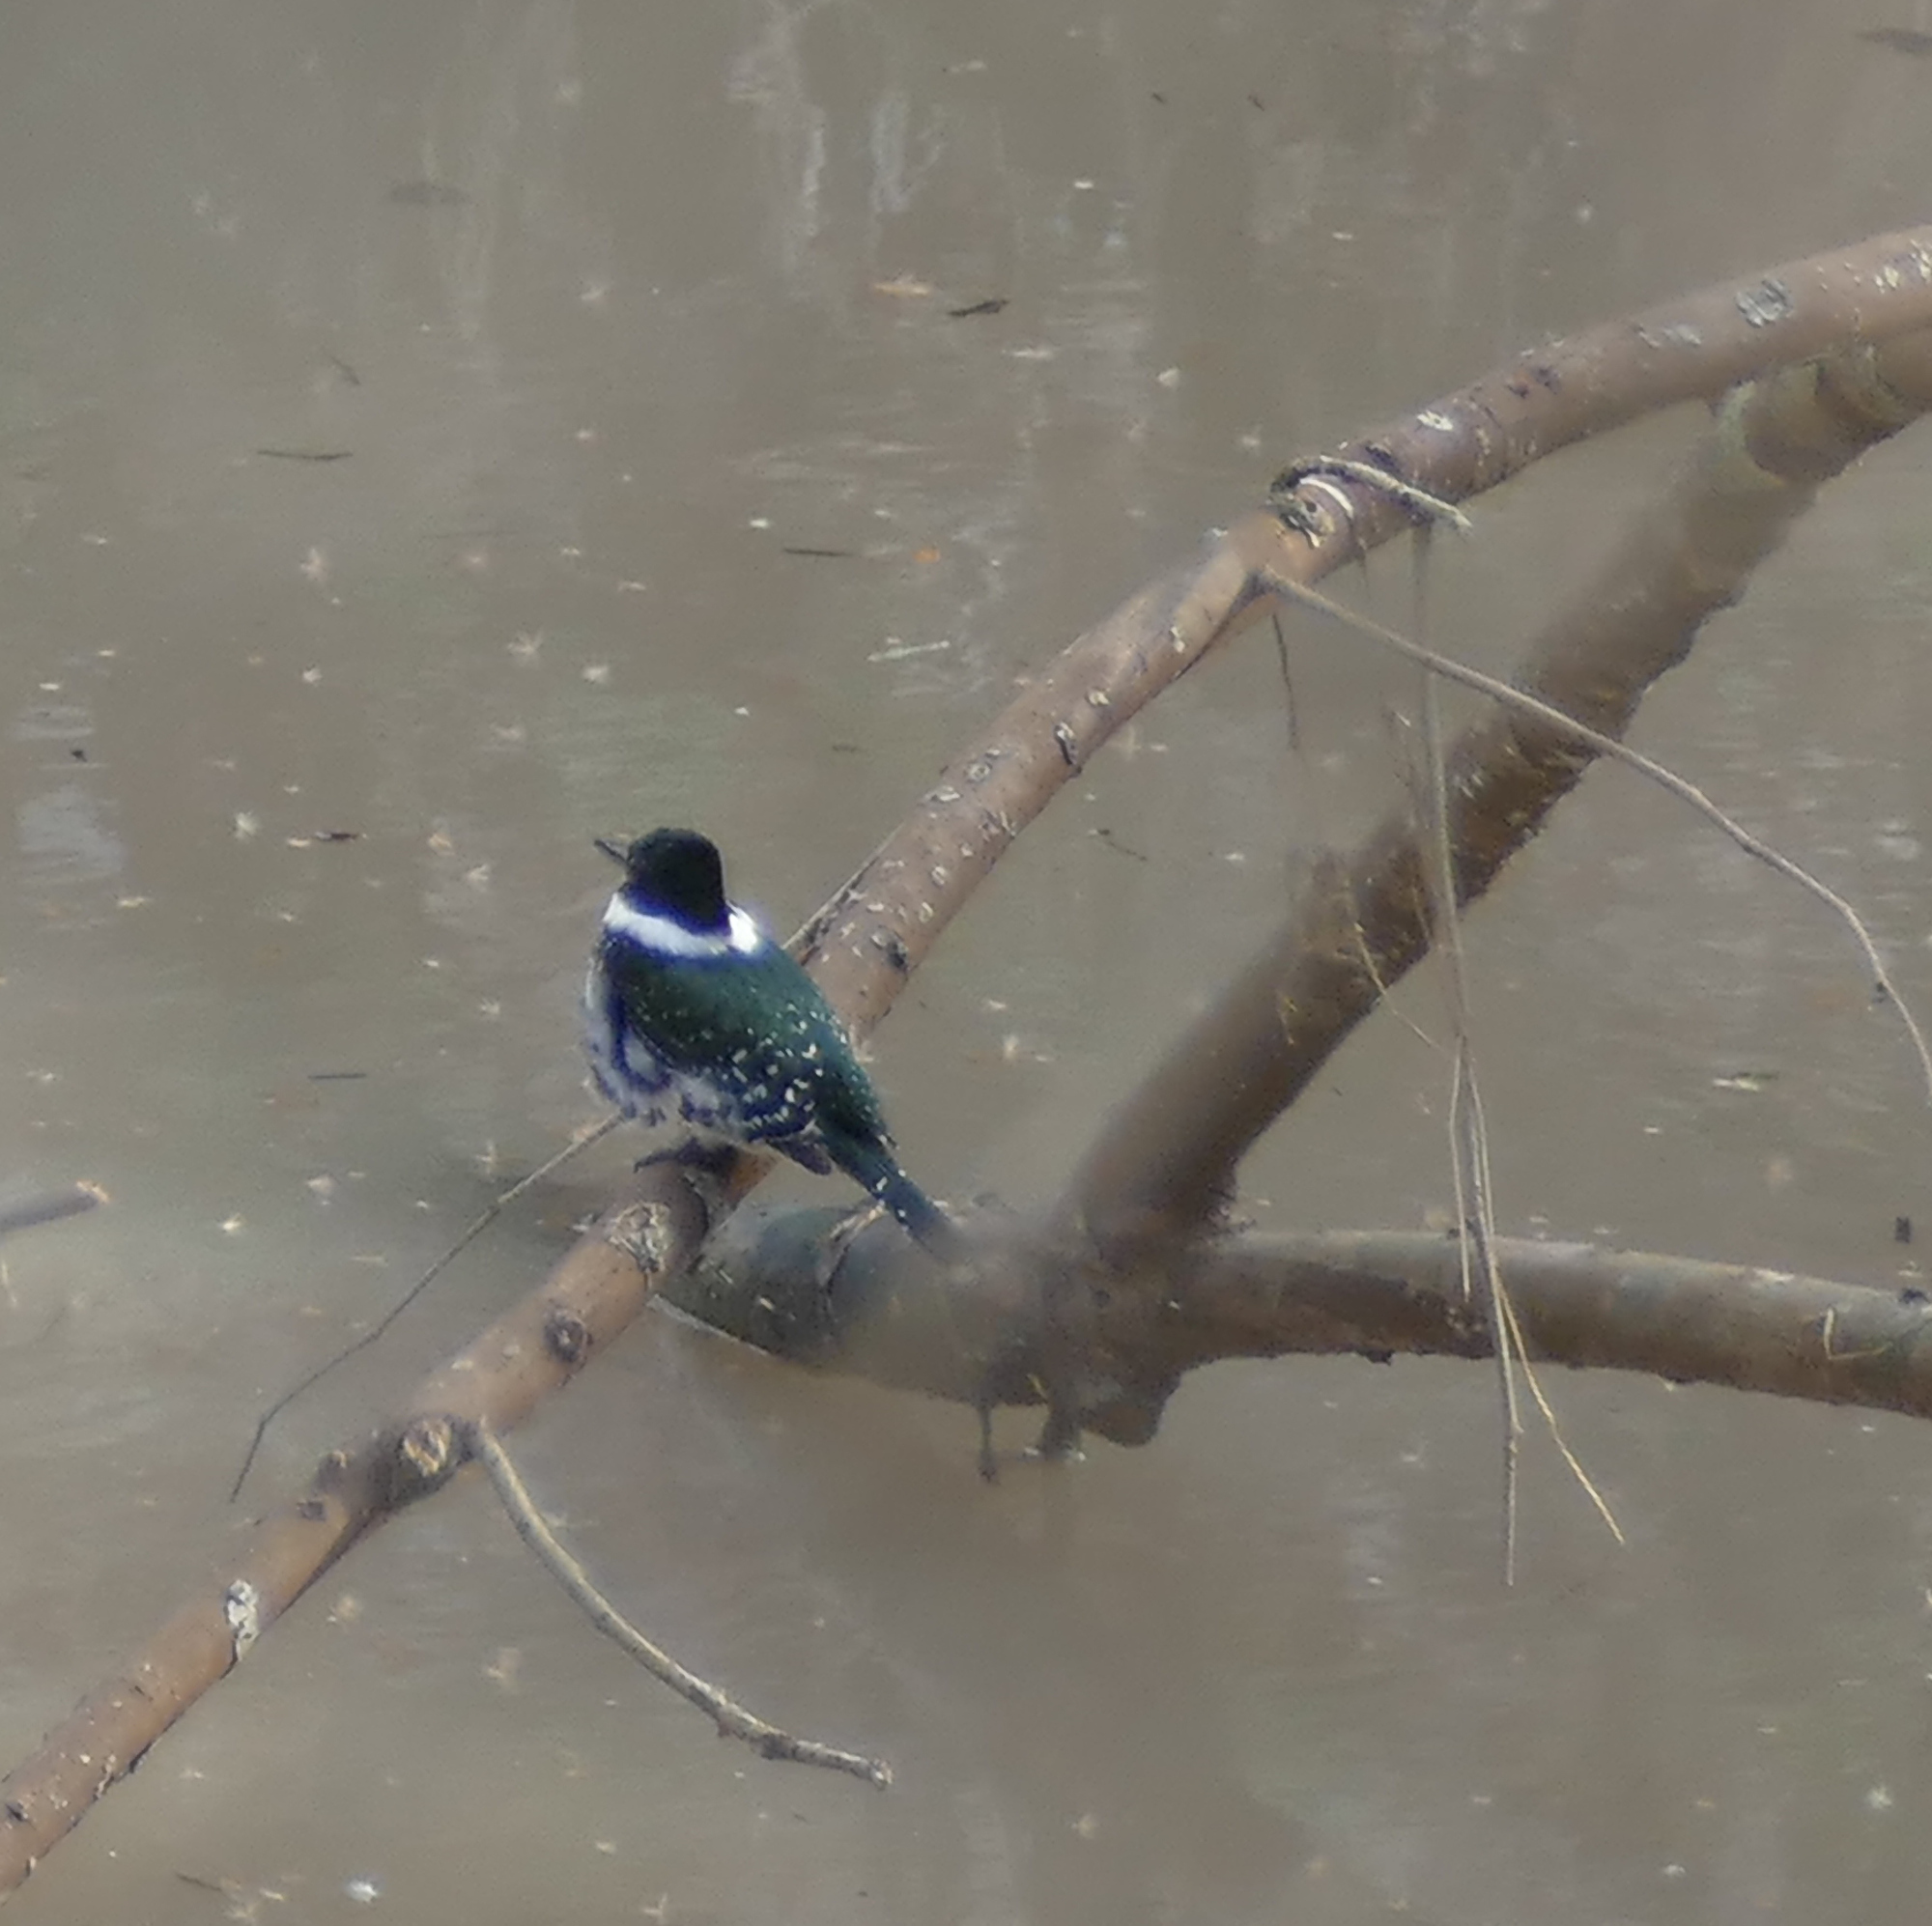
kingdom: Animalia
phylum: Chordata
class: Aves
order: Coraciiformes
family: Alcedinidae
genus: Chloroceryle
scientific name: Chloroceryle americana
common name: Green kingfisher
